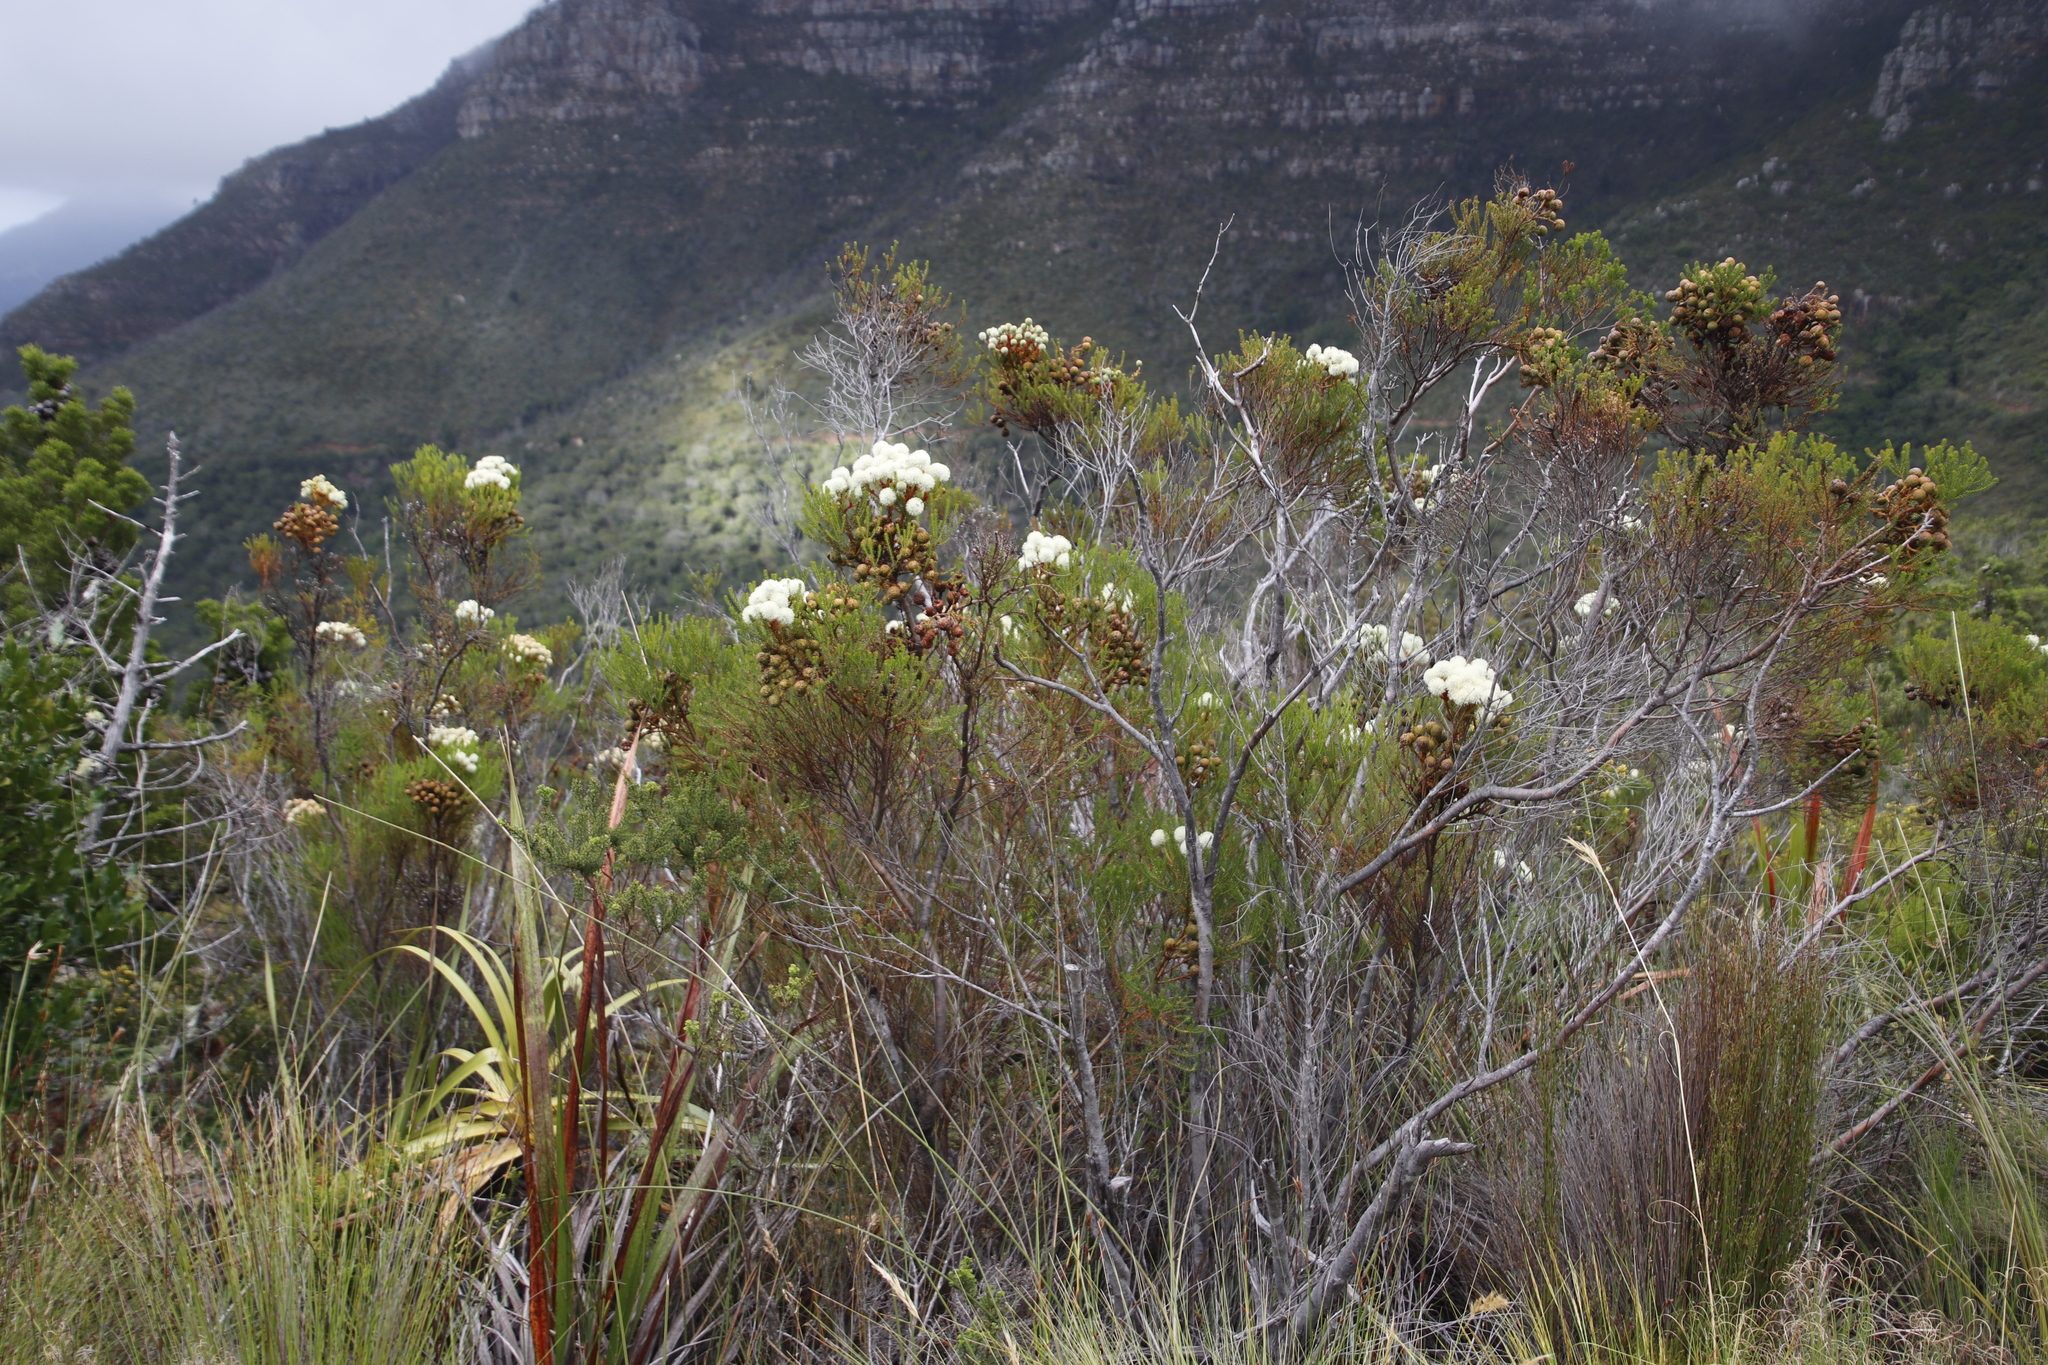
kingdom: Plantae
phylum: Tracheophyta
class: Magnoliopsida
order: Bruniales
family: Bruniaceae
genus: Berzelia
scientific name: Berzelia abrotanoides
